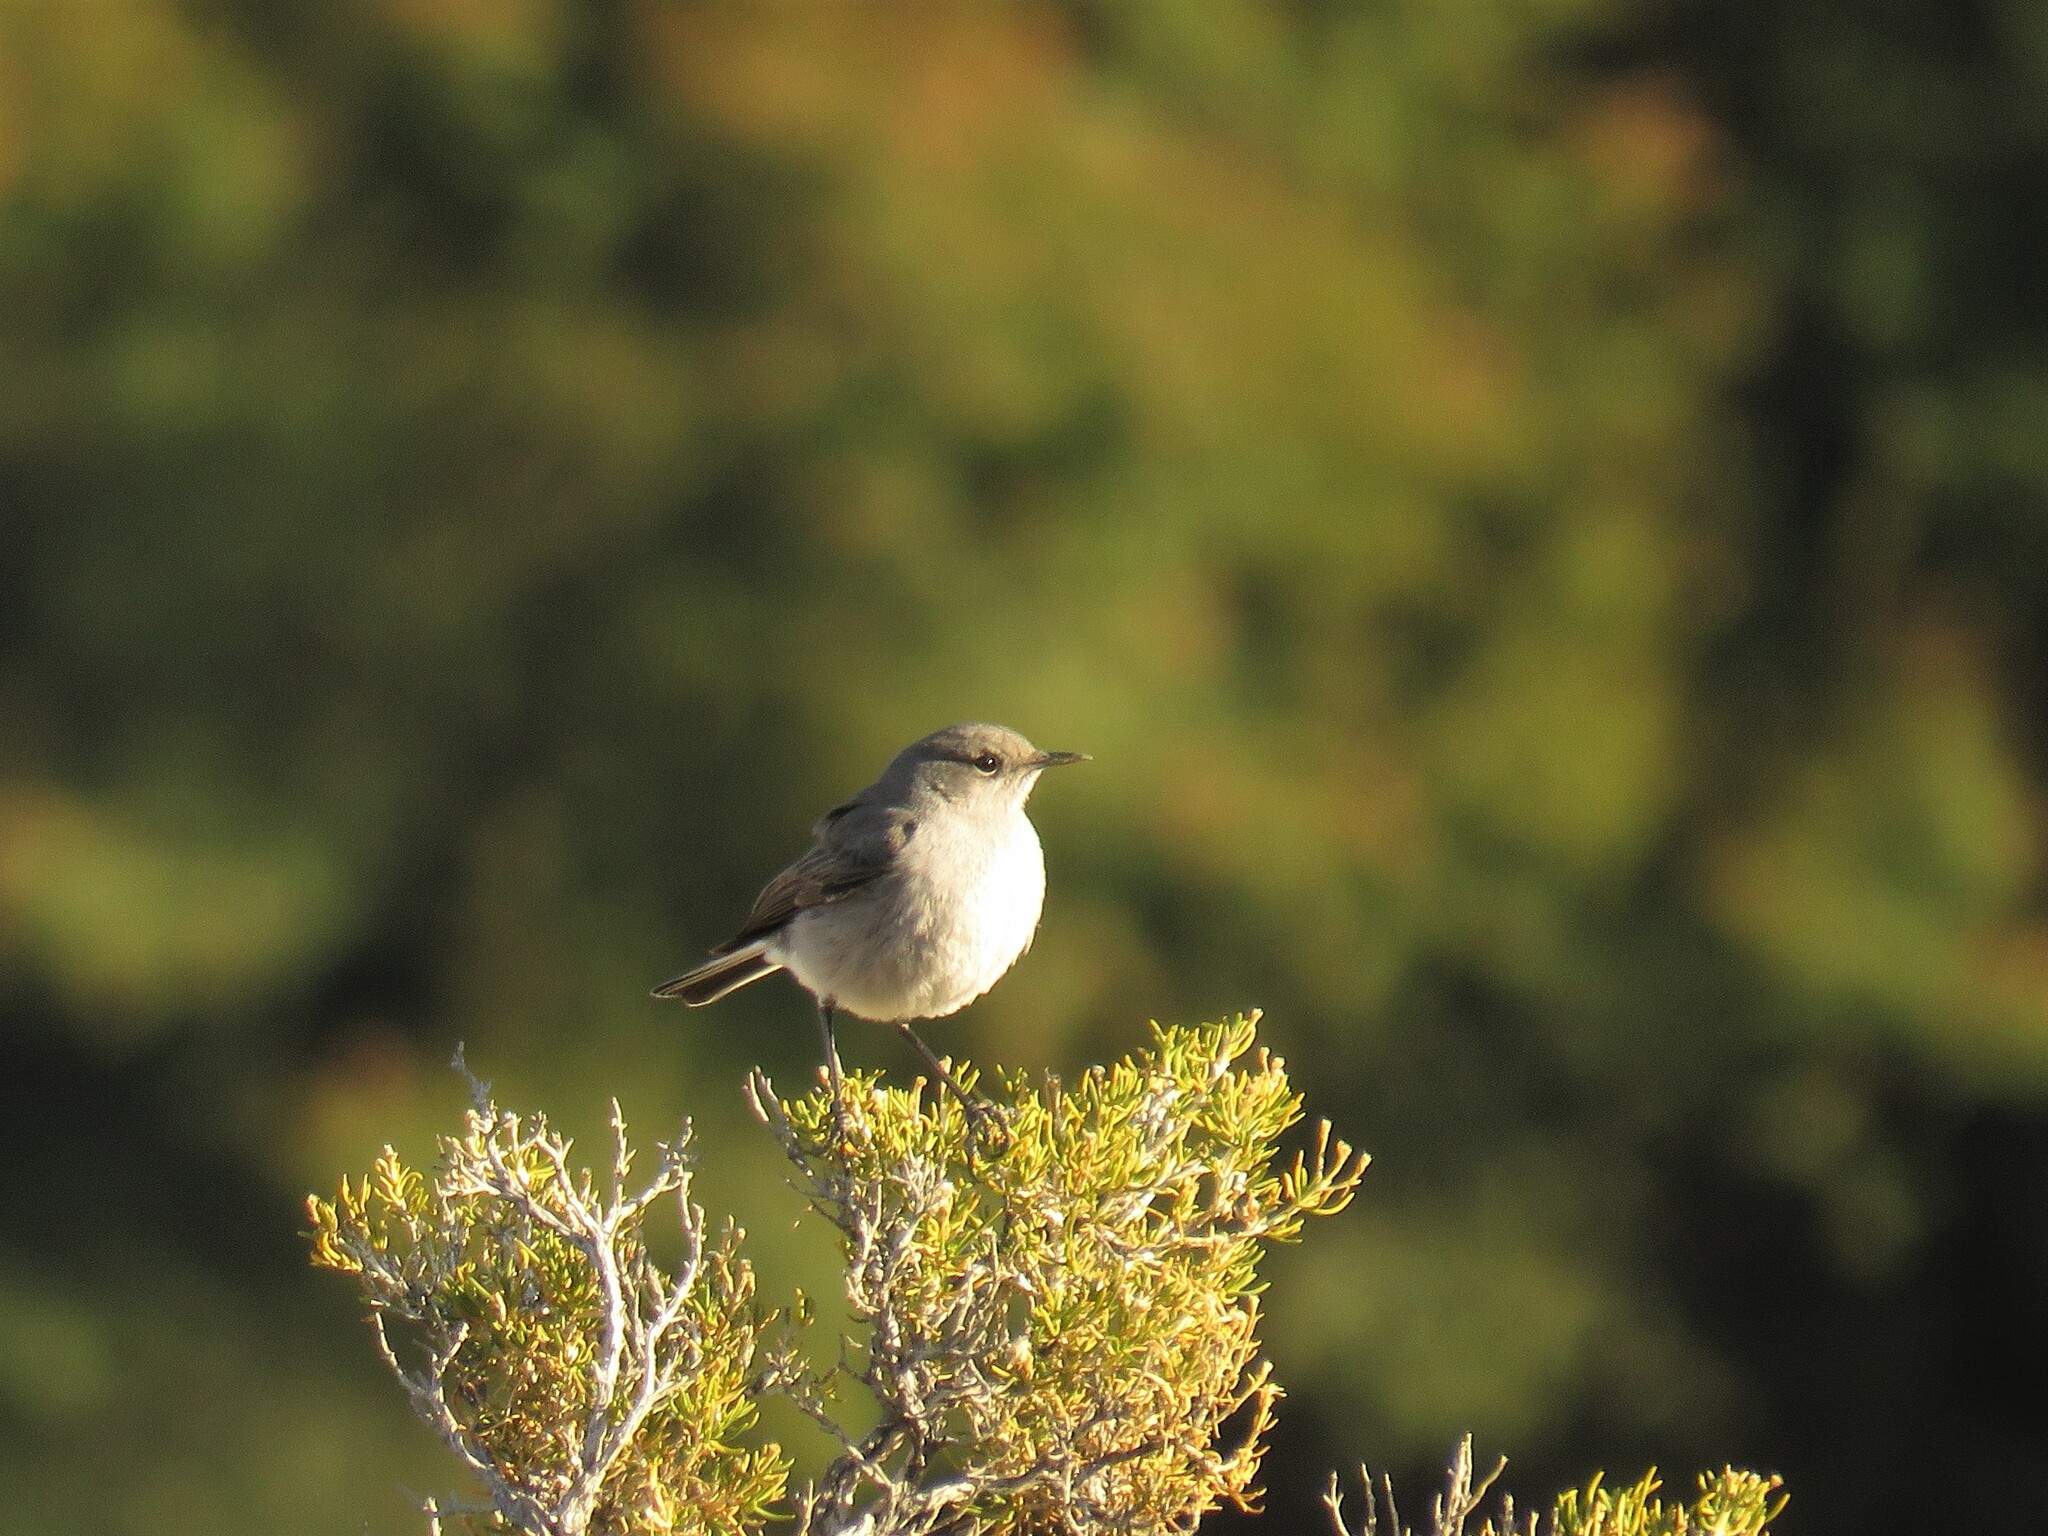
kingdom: Animalia
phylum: Chordata
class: Aves
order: Passeriformes
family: Muscicapidae
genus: Emarginata
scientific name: Emarginata schlegelii
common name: Karoo chat
